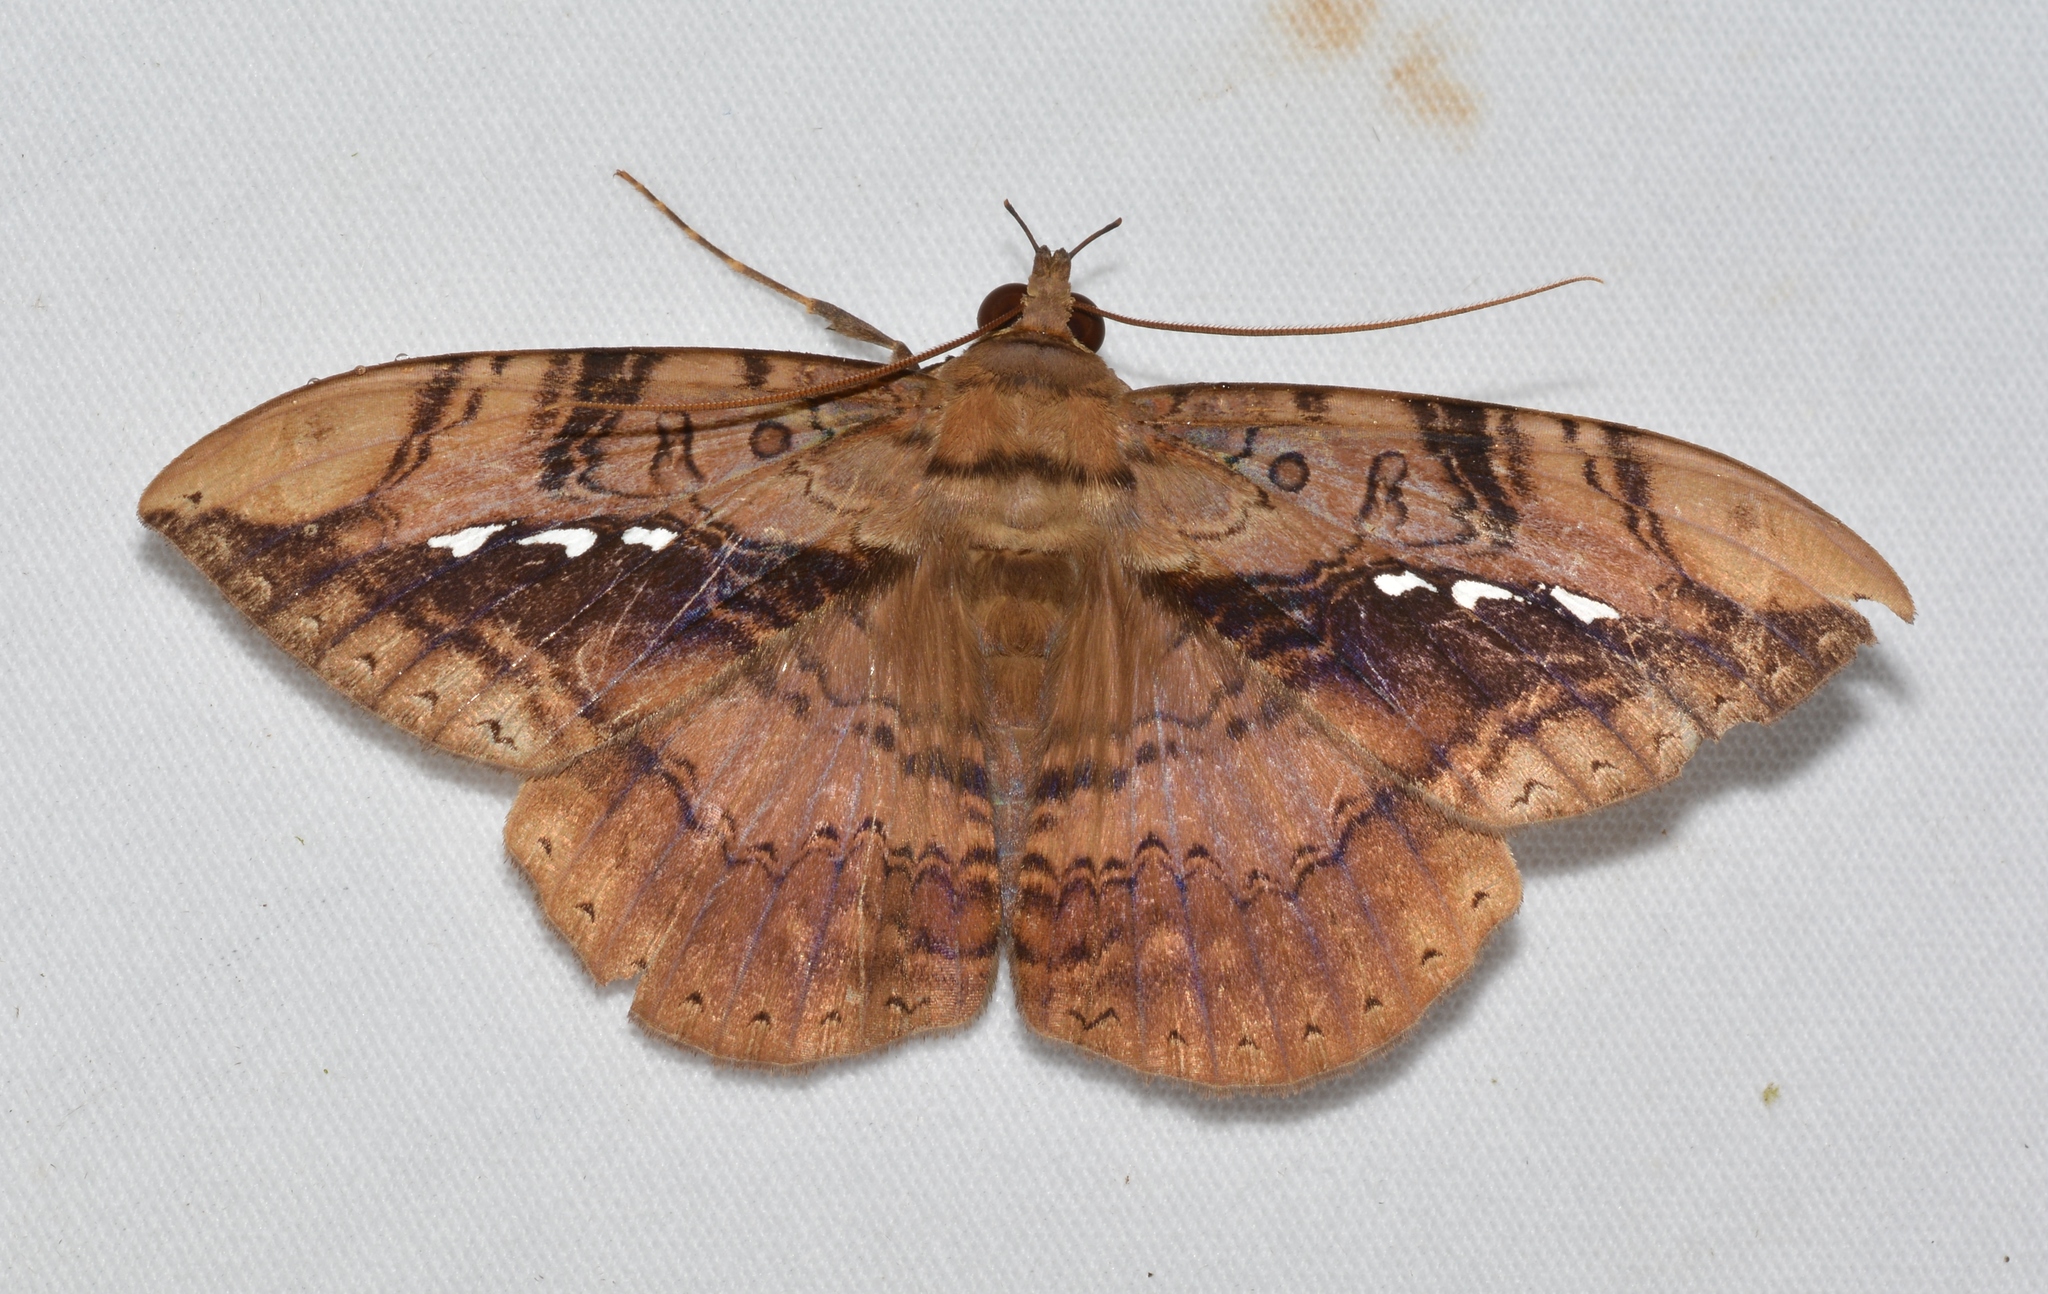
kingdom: Animalia
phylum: Arthropoda
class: Insecta
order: Lepidoptera
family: Erebidae
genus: Hemeroblemma
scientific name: Hemeroblemma acron
